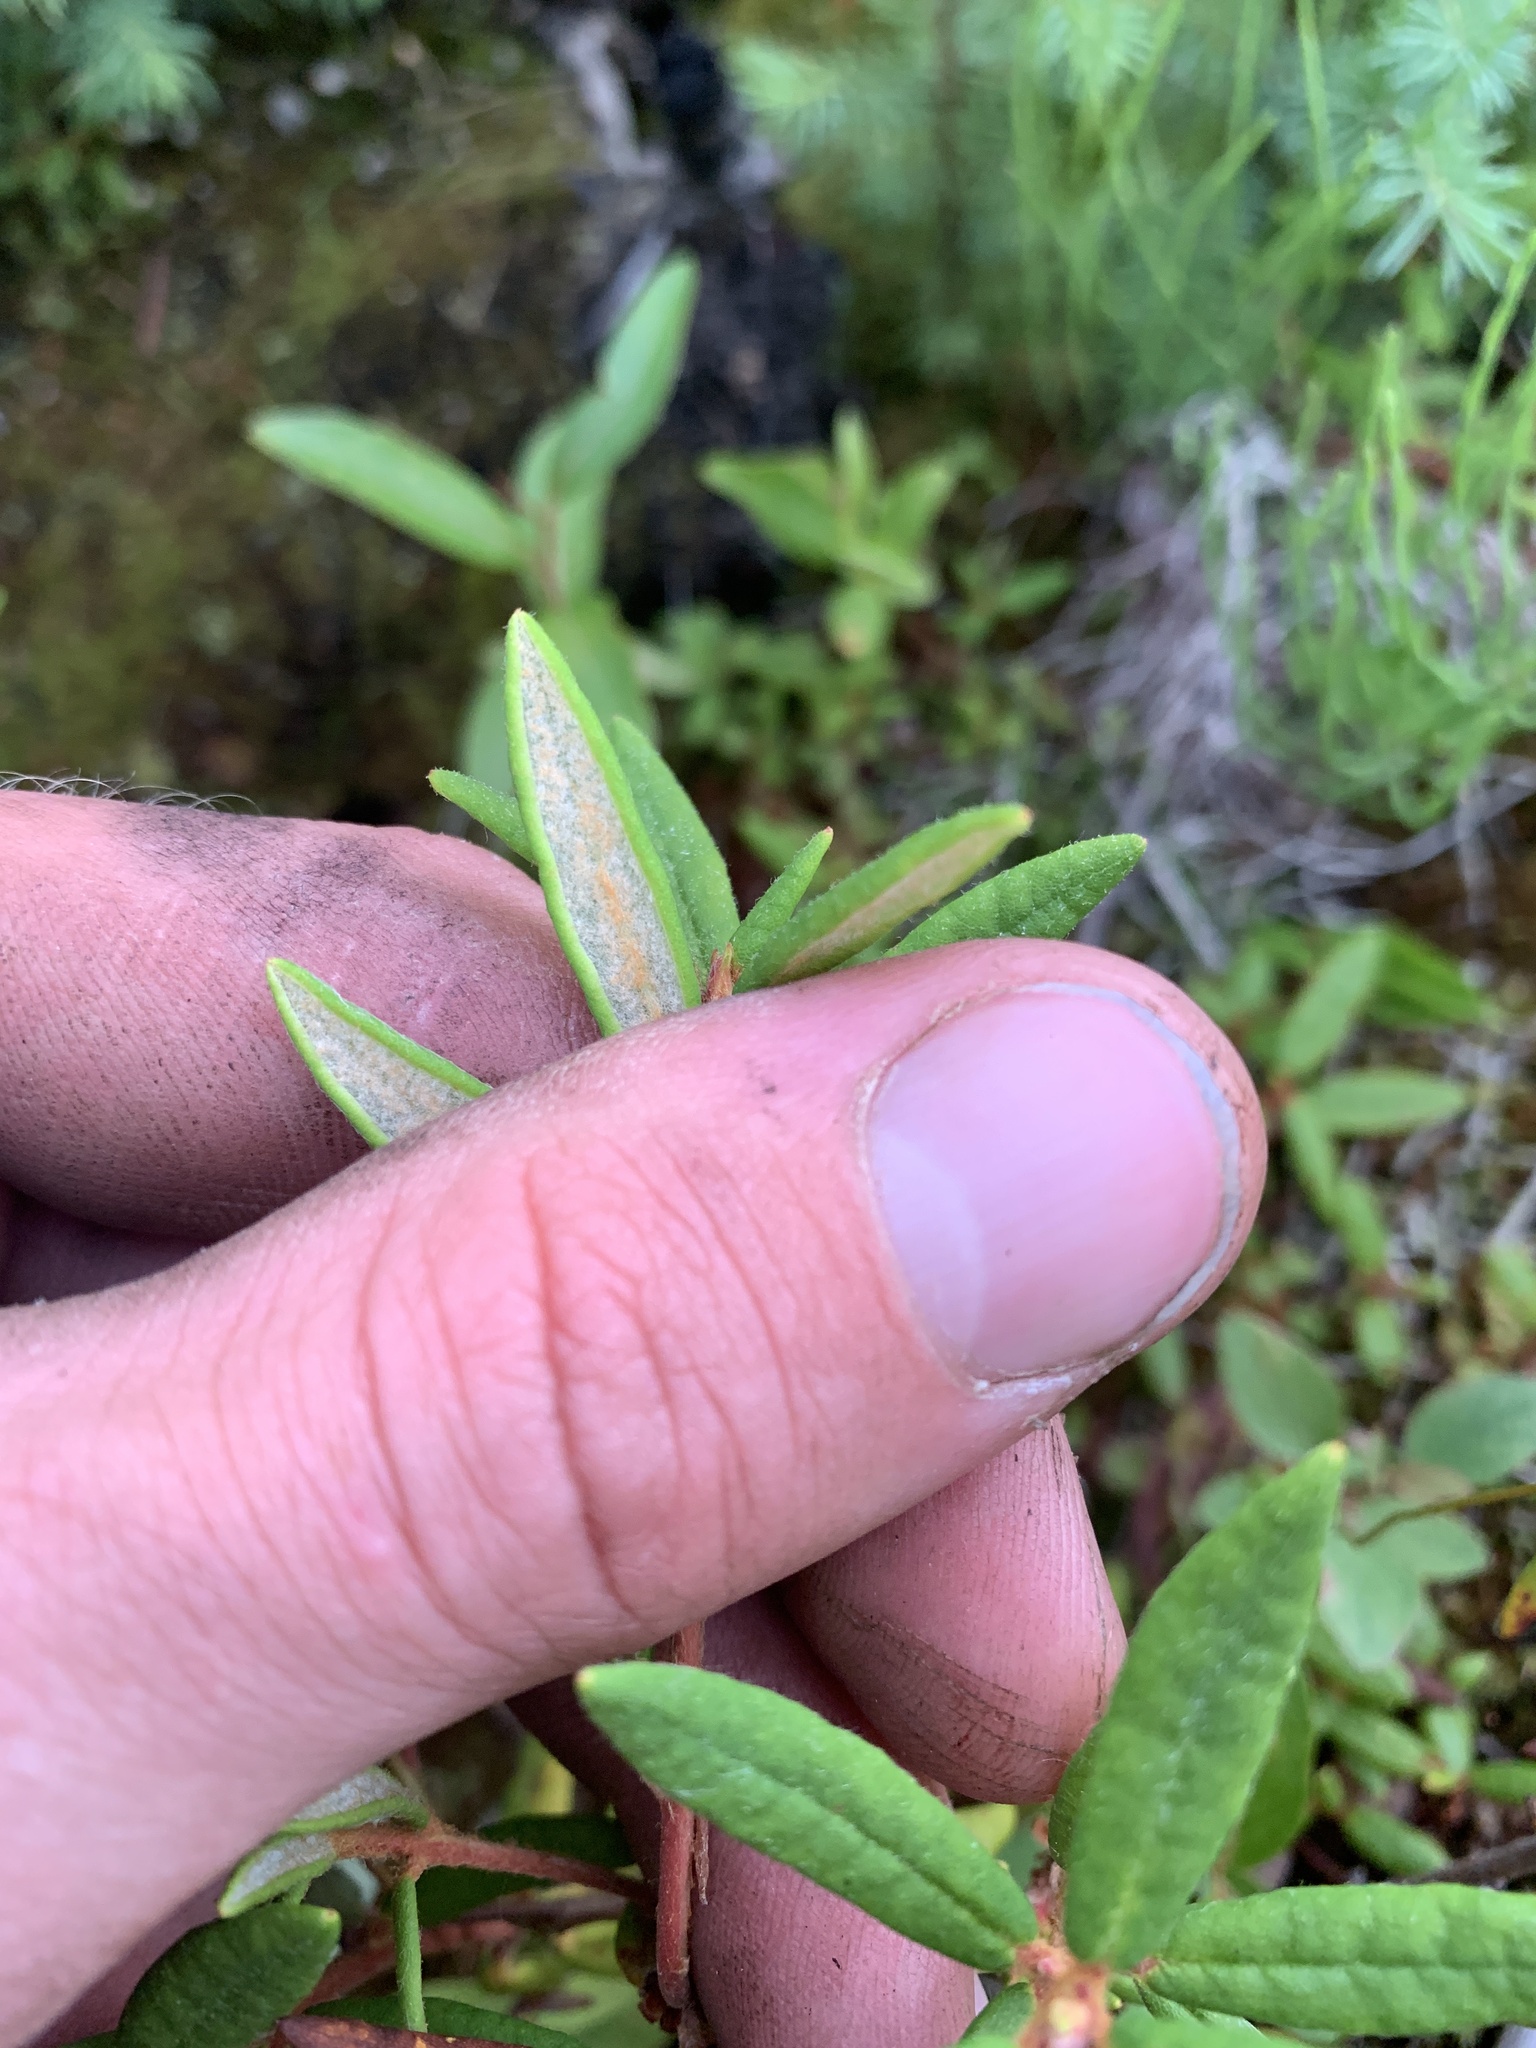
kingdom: Plantae
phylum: Tracheophyta
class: Magnoliopsida
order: Ericales
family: Ericaceae
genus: Rhododendron
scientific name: Rhododendron groenlandicum
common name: Bog labrador tea
